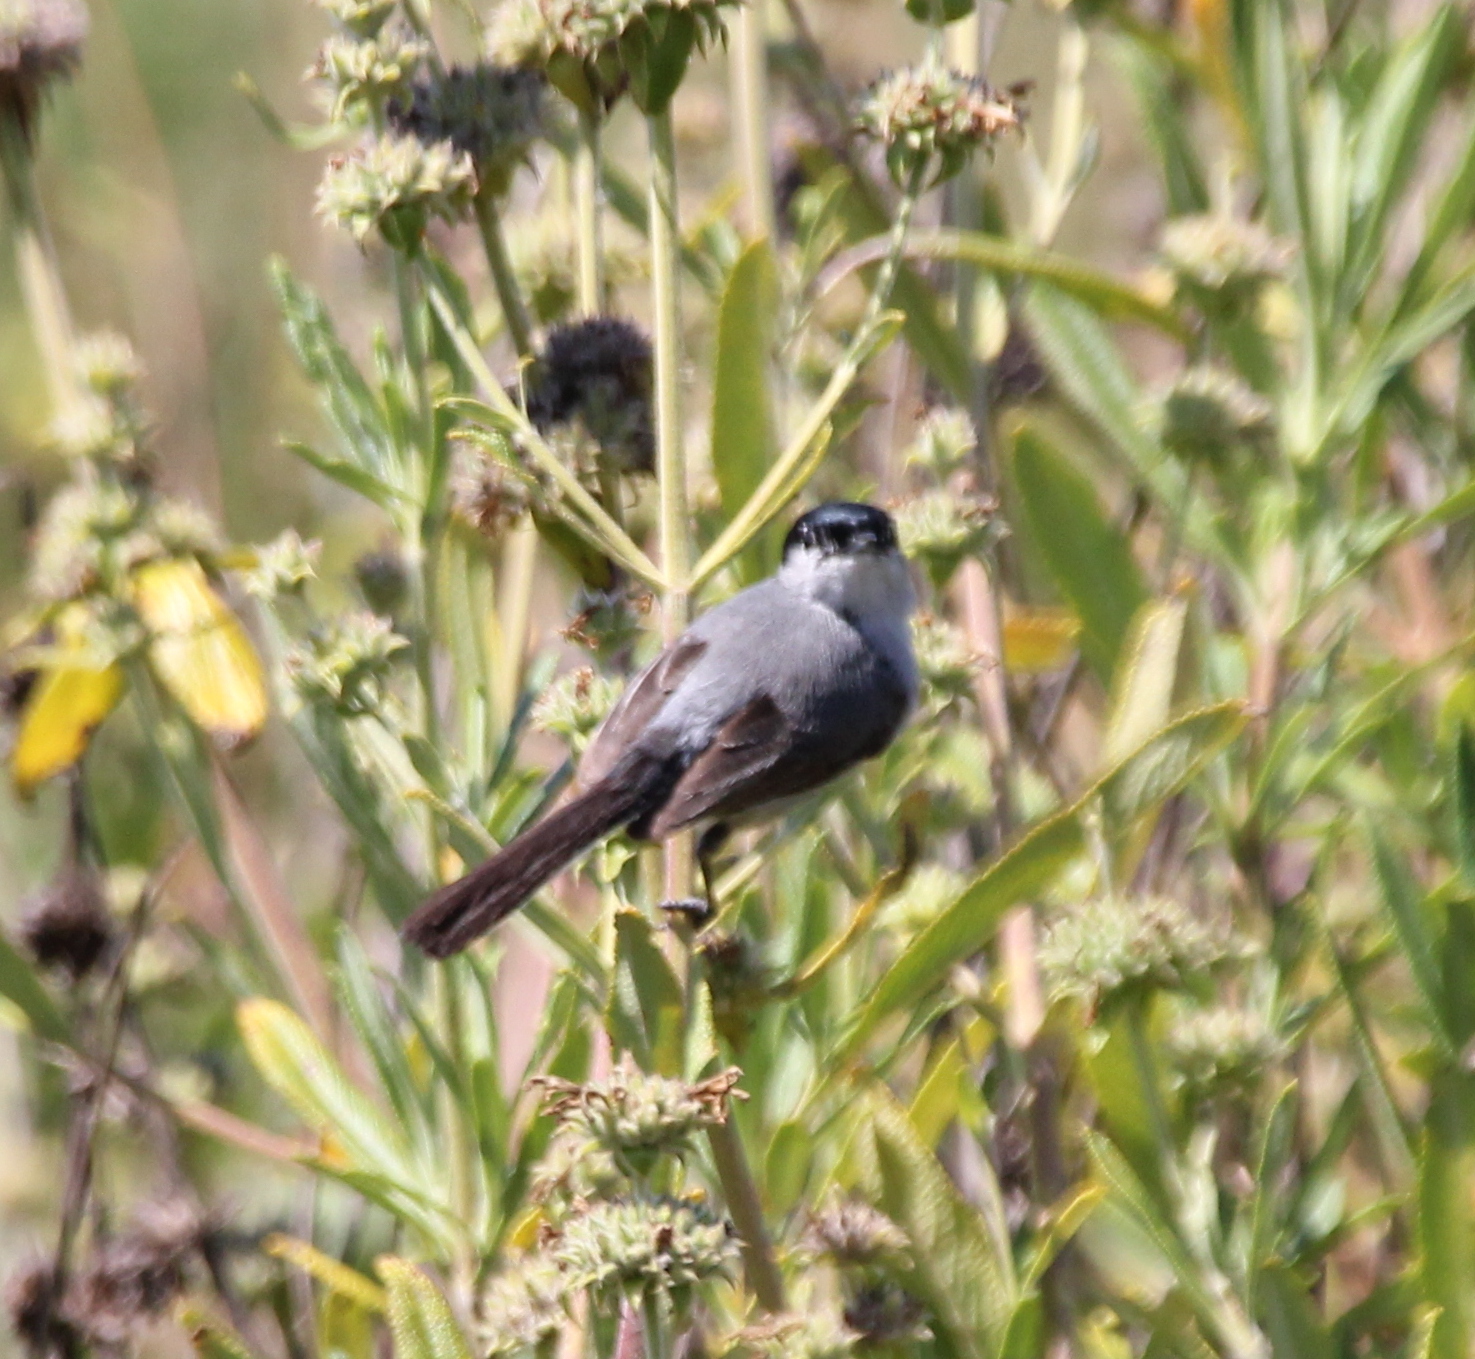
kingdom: Animalia
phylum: Chordata
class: Aves
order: Passeriformes
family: Polioptilidae
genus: Polioptila
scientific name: Polioptila californica
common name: California gnatcatcher
